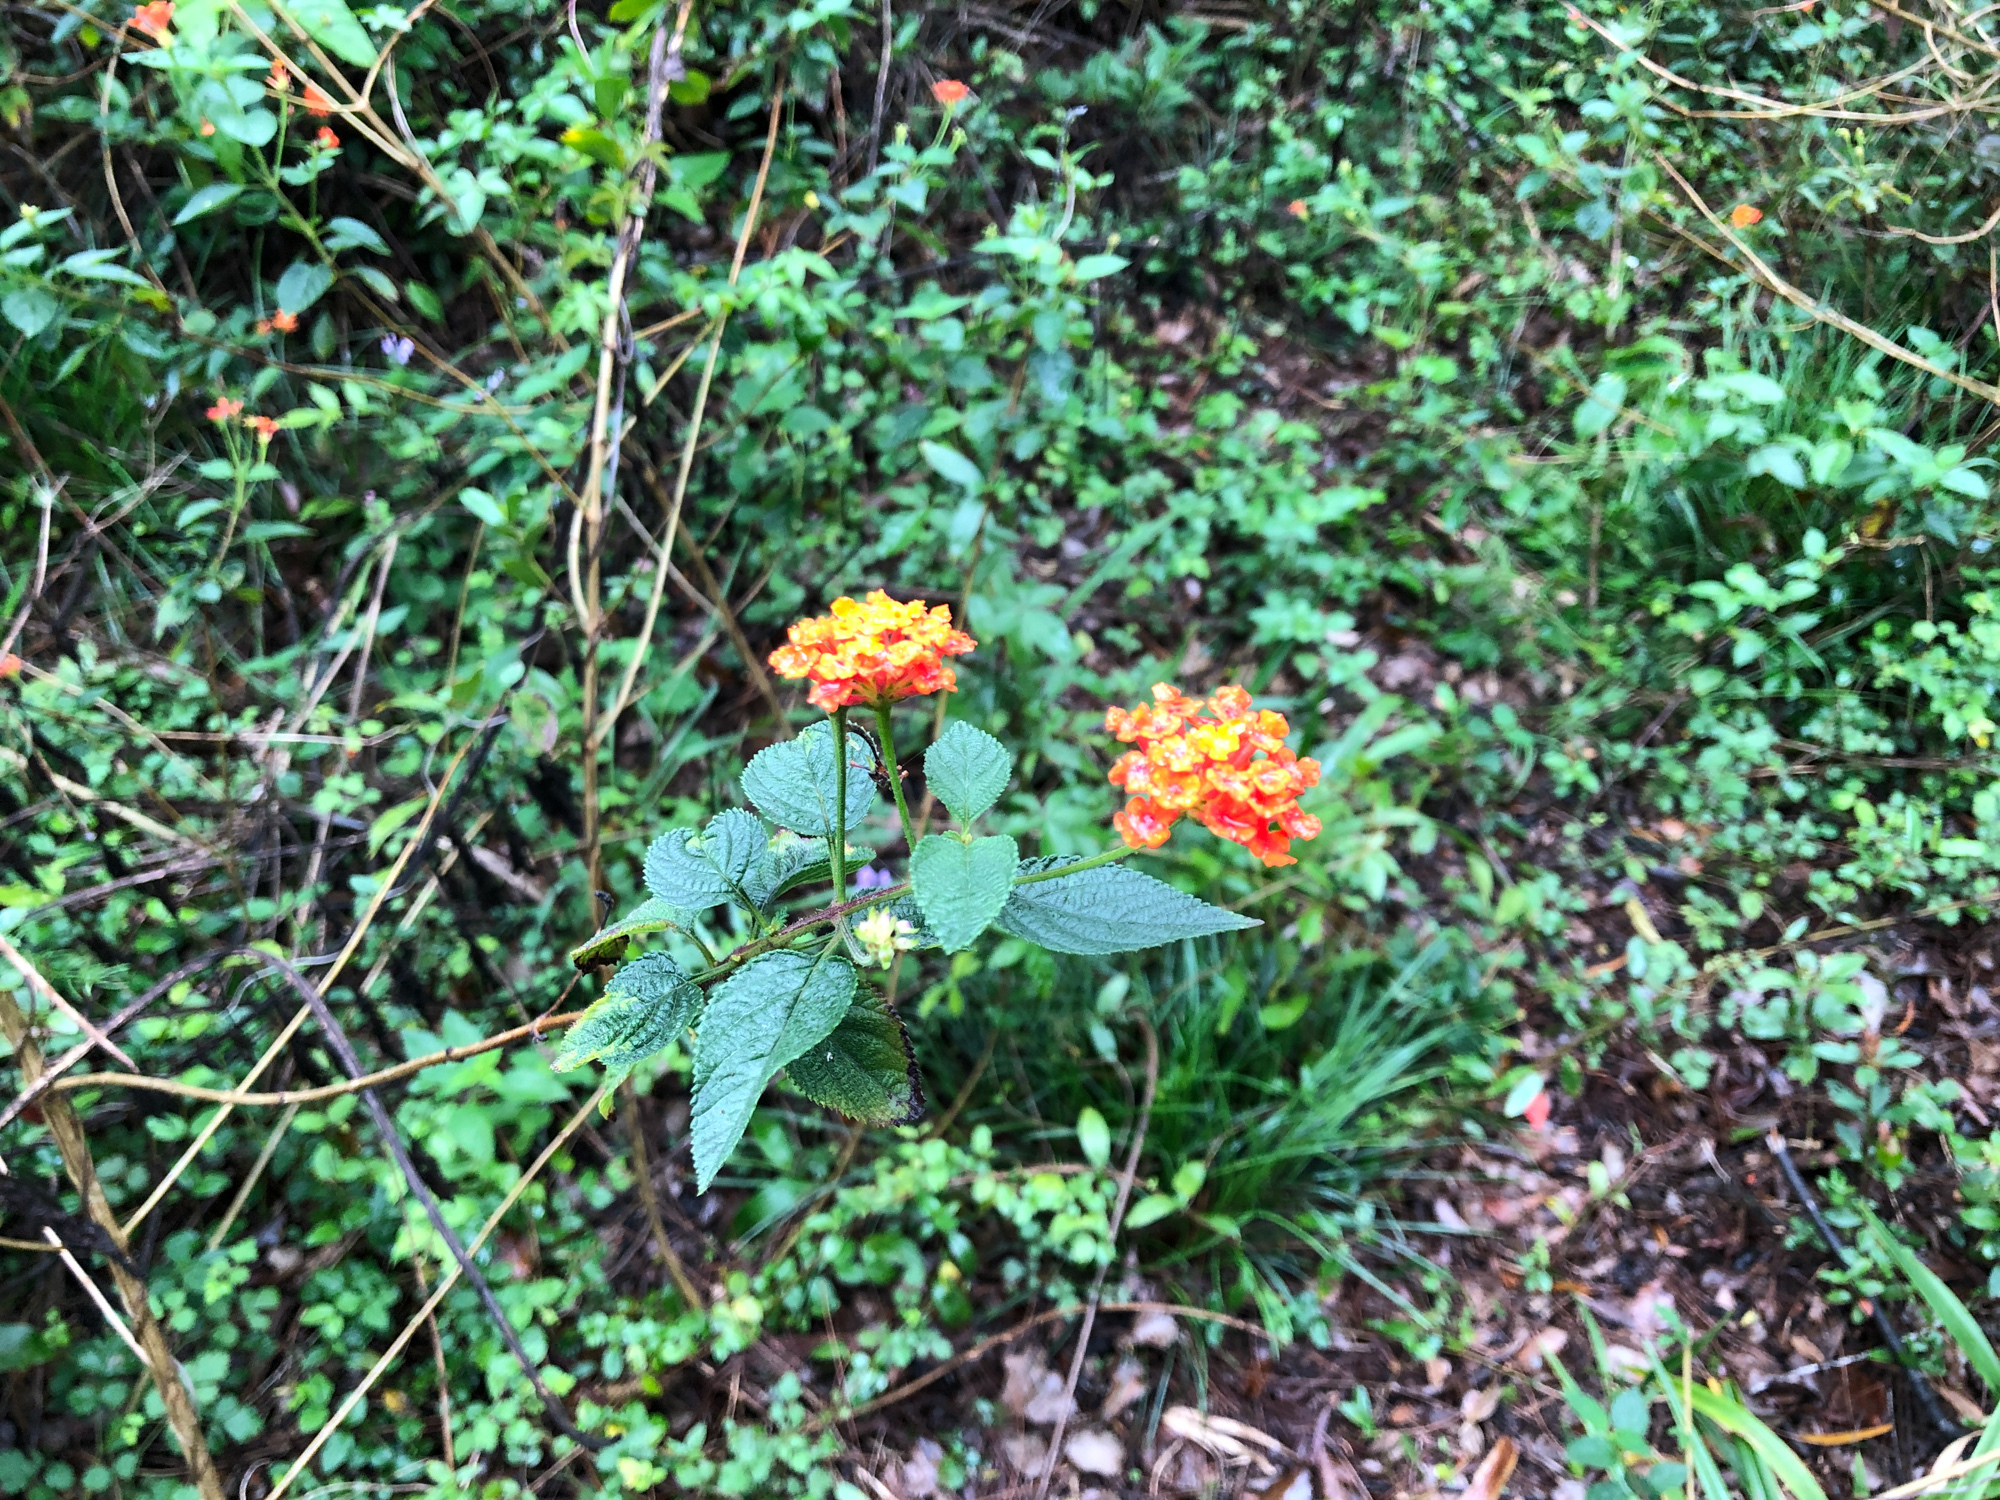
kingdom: Plantae
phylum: Tracheophyta
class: Magnoliopsida
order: Lamiales
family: Verbenaceae
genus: Lantana
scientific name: Lantana camara
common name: Lantana
